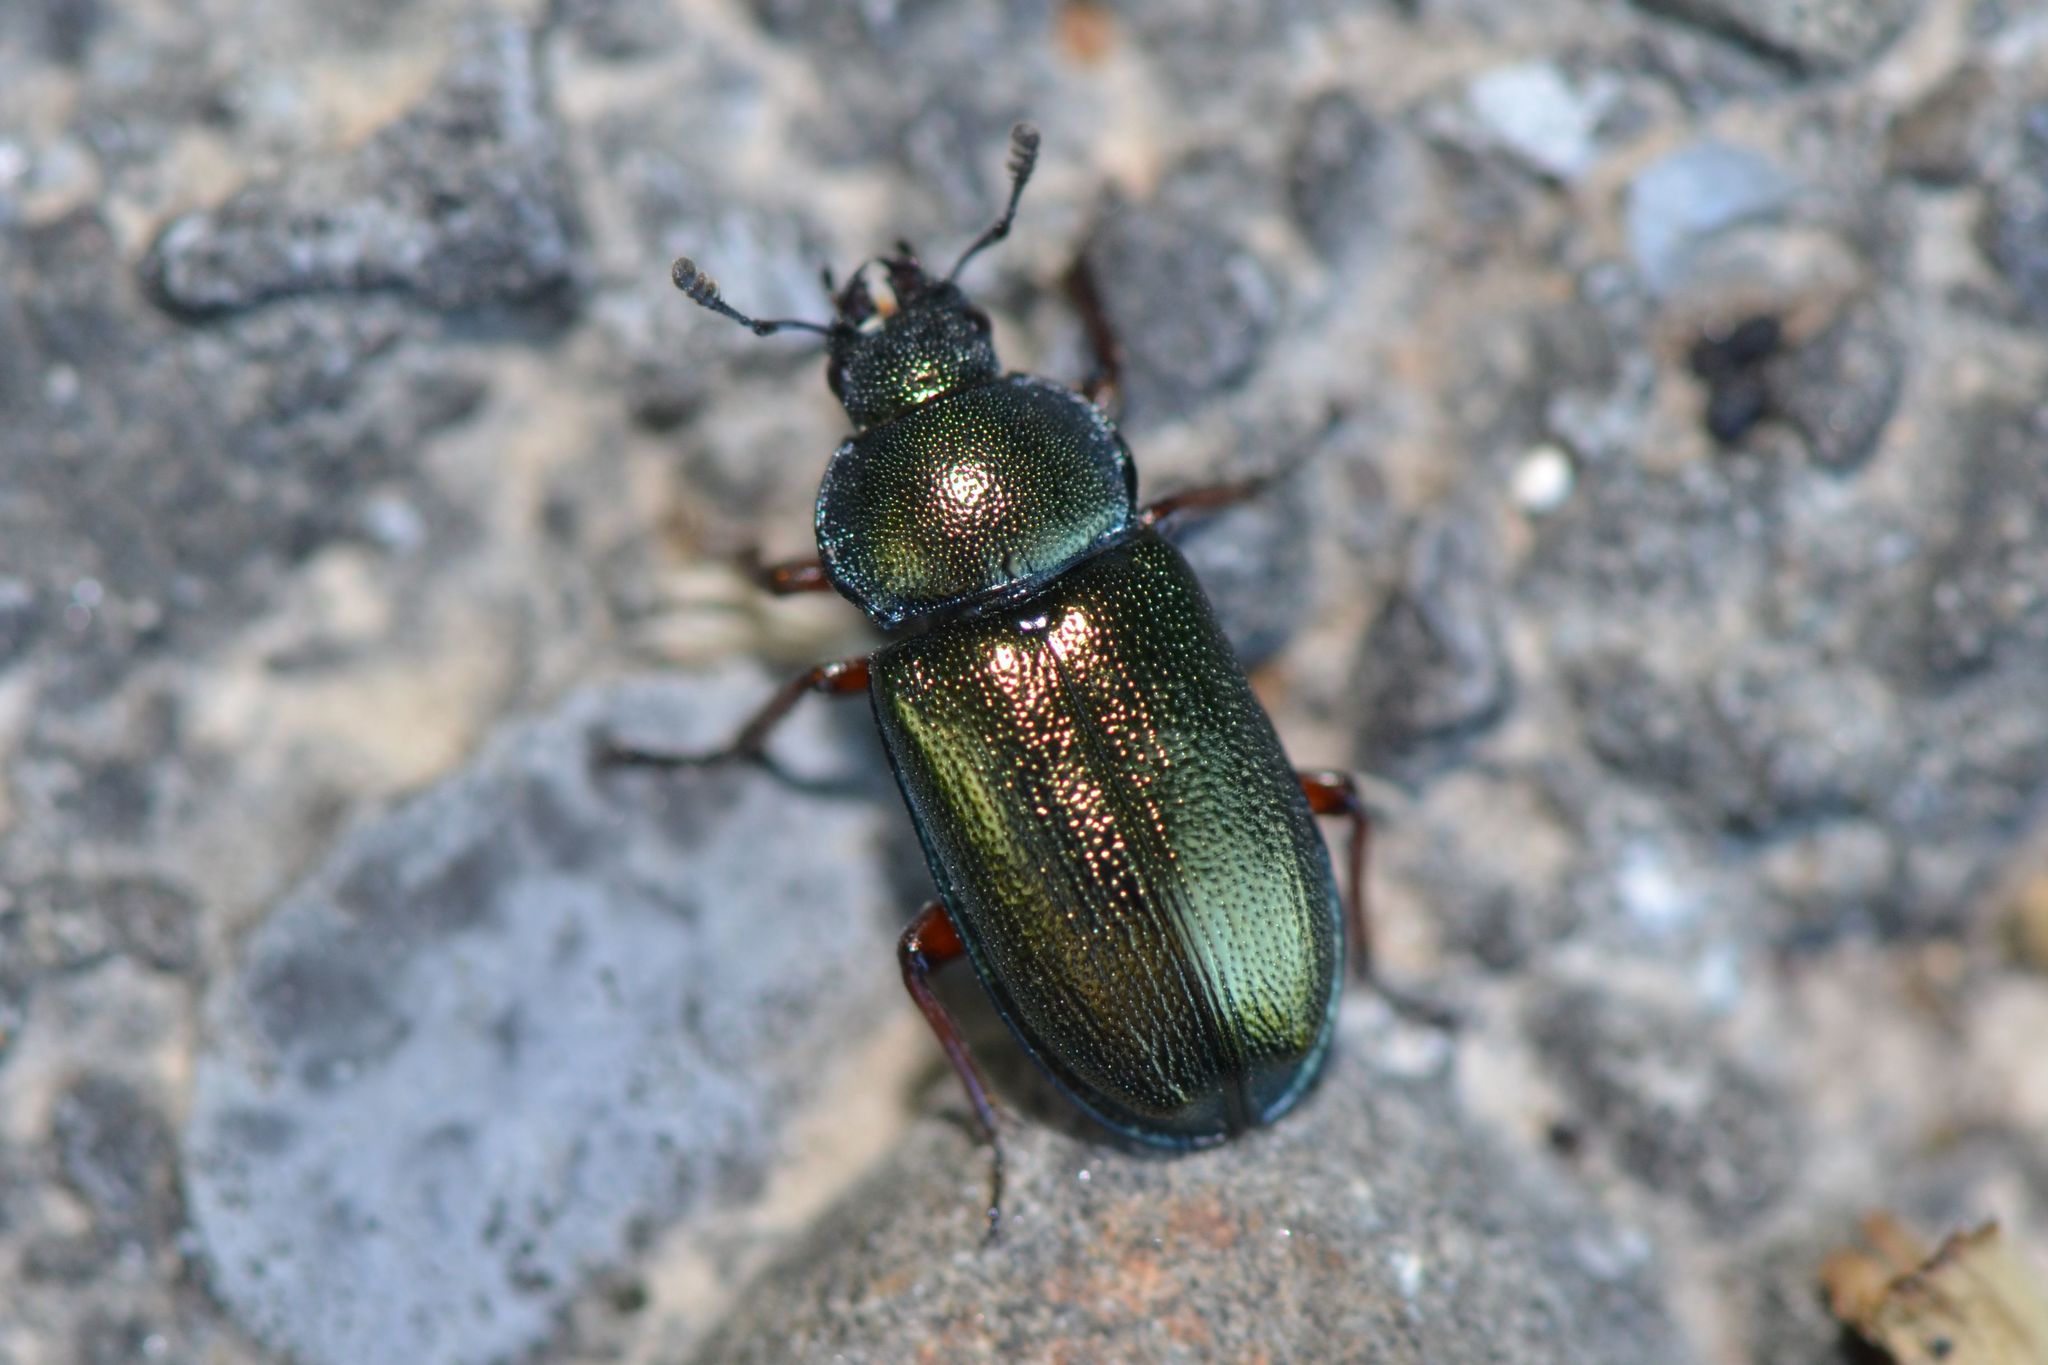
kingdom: Animalia
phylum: Arthropoda
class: Insecta
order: Coleoptera
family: Lucanidae
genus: Platycerus
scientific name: Platycerus caraboides
